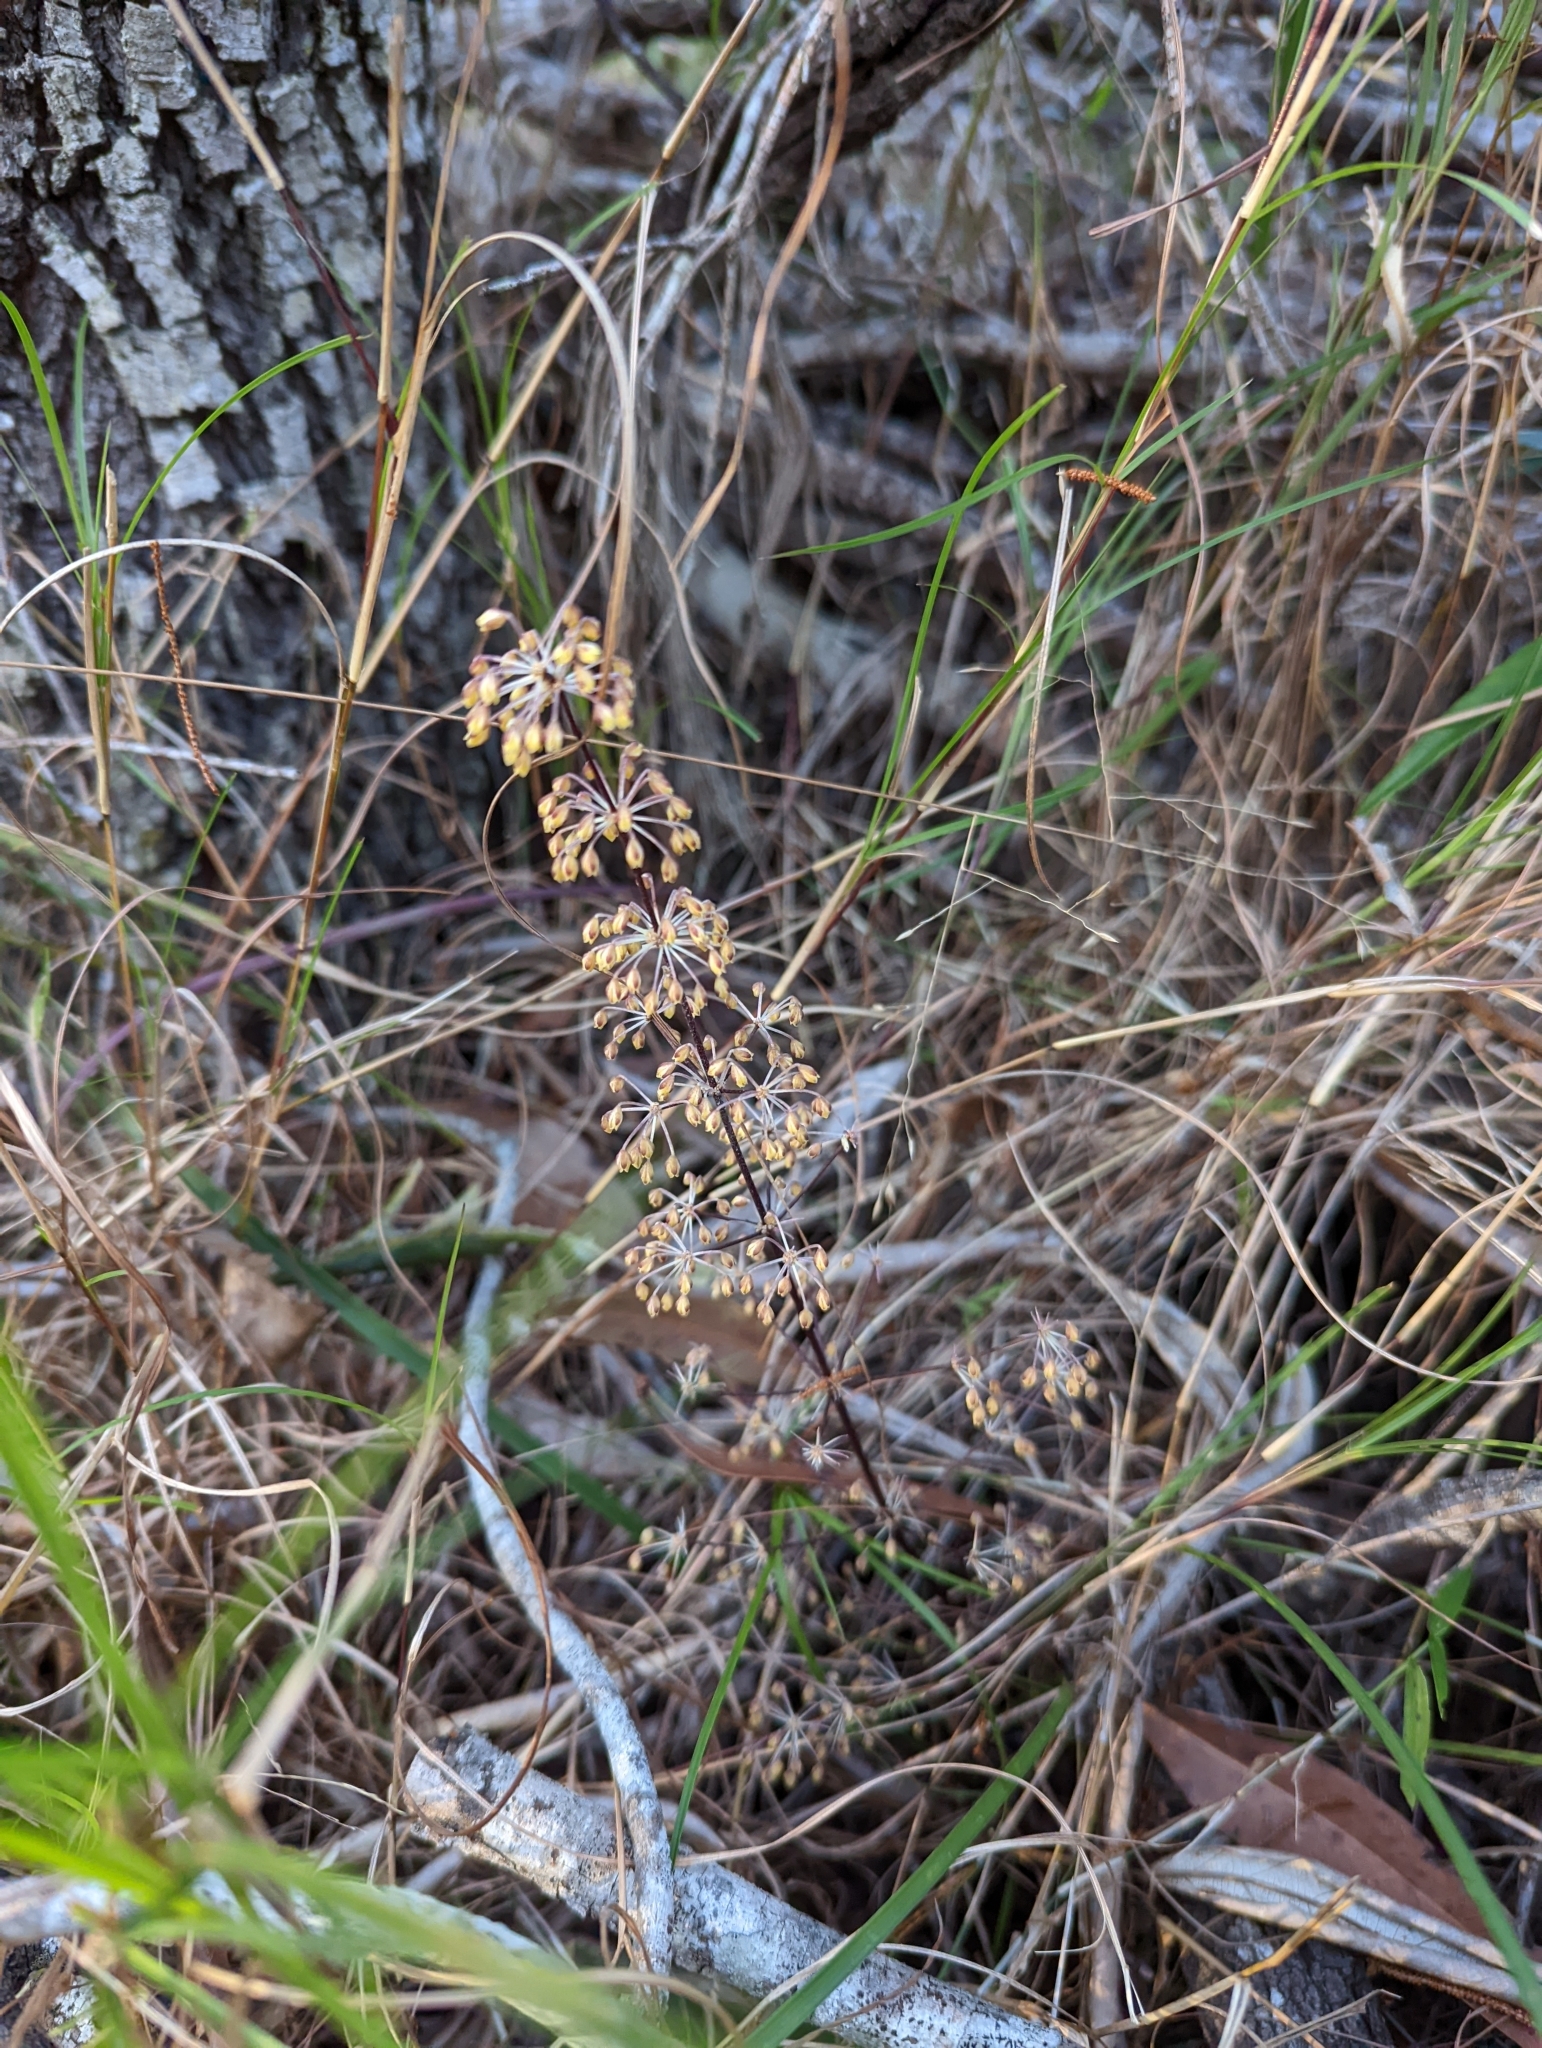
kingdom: Plantae
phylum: Tracheophyta
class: Liliopsida
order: Asparagales
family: Asparagaceae
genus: Lomandra
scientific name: Lomandra multiflora
